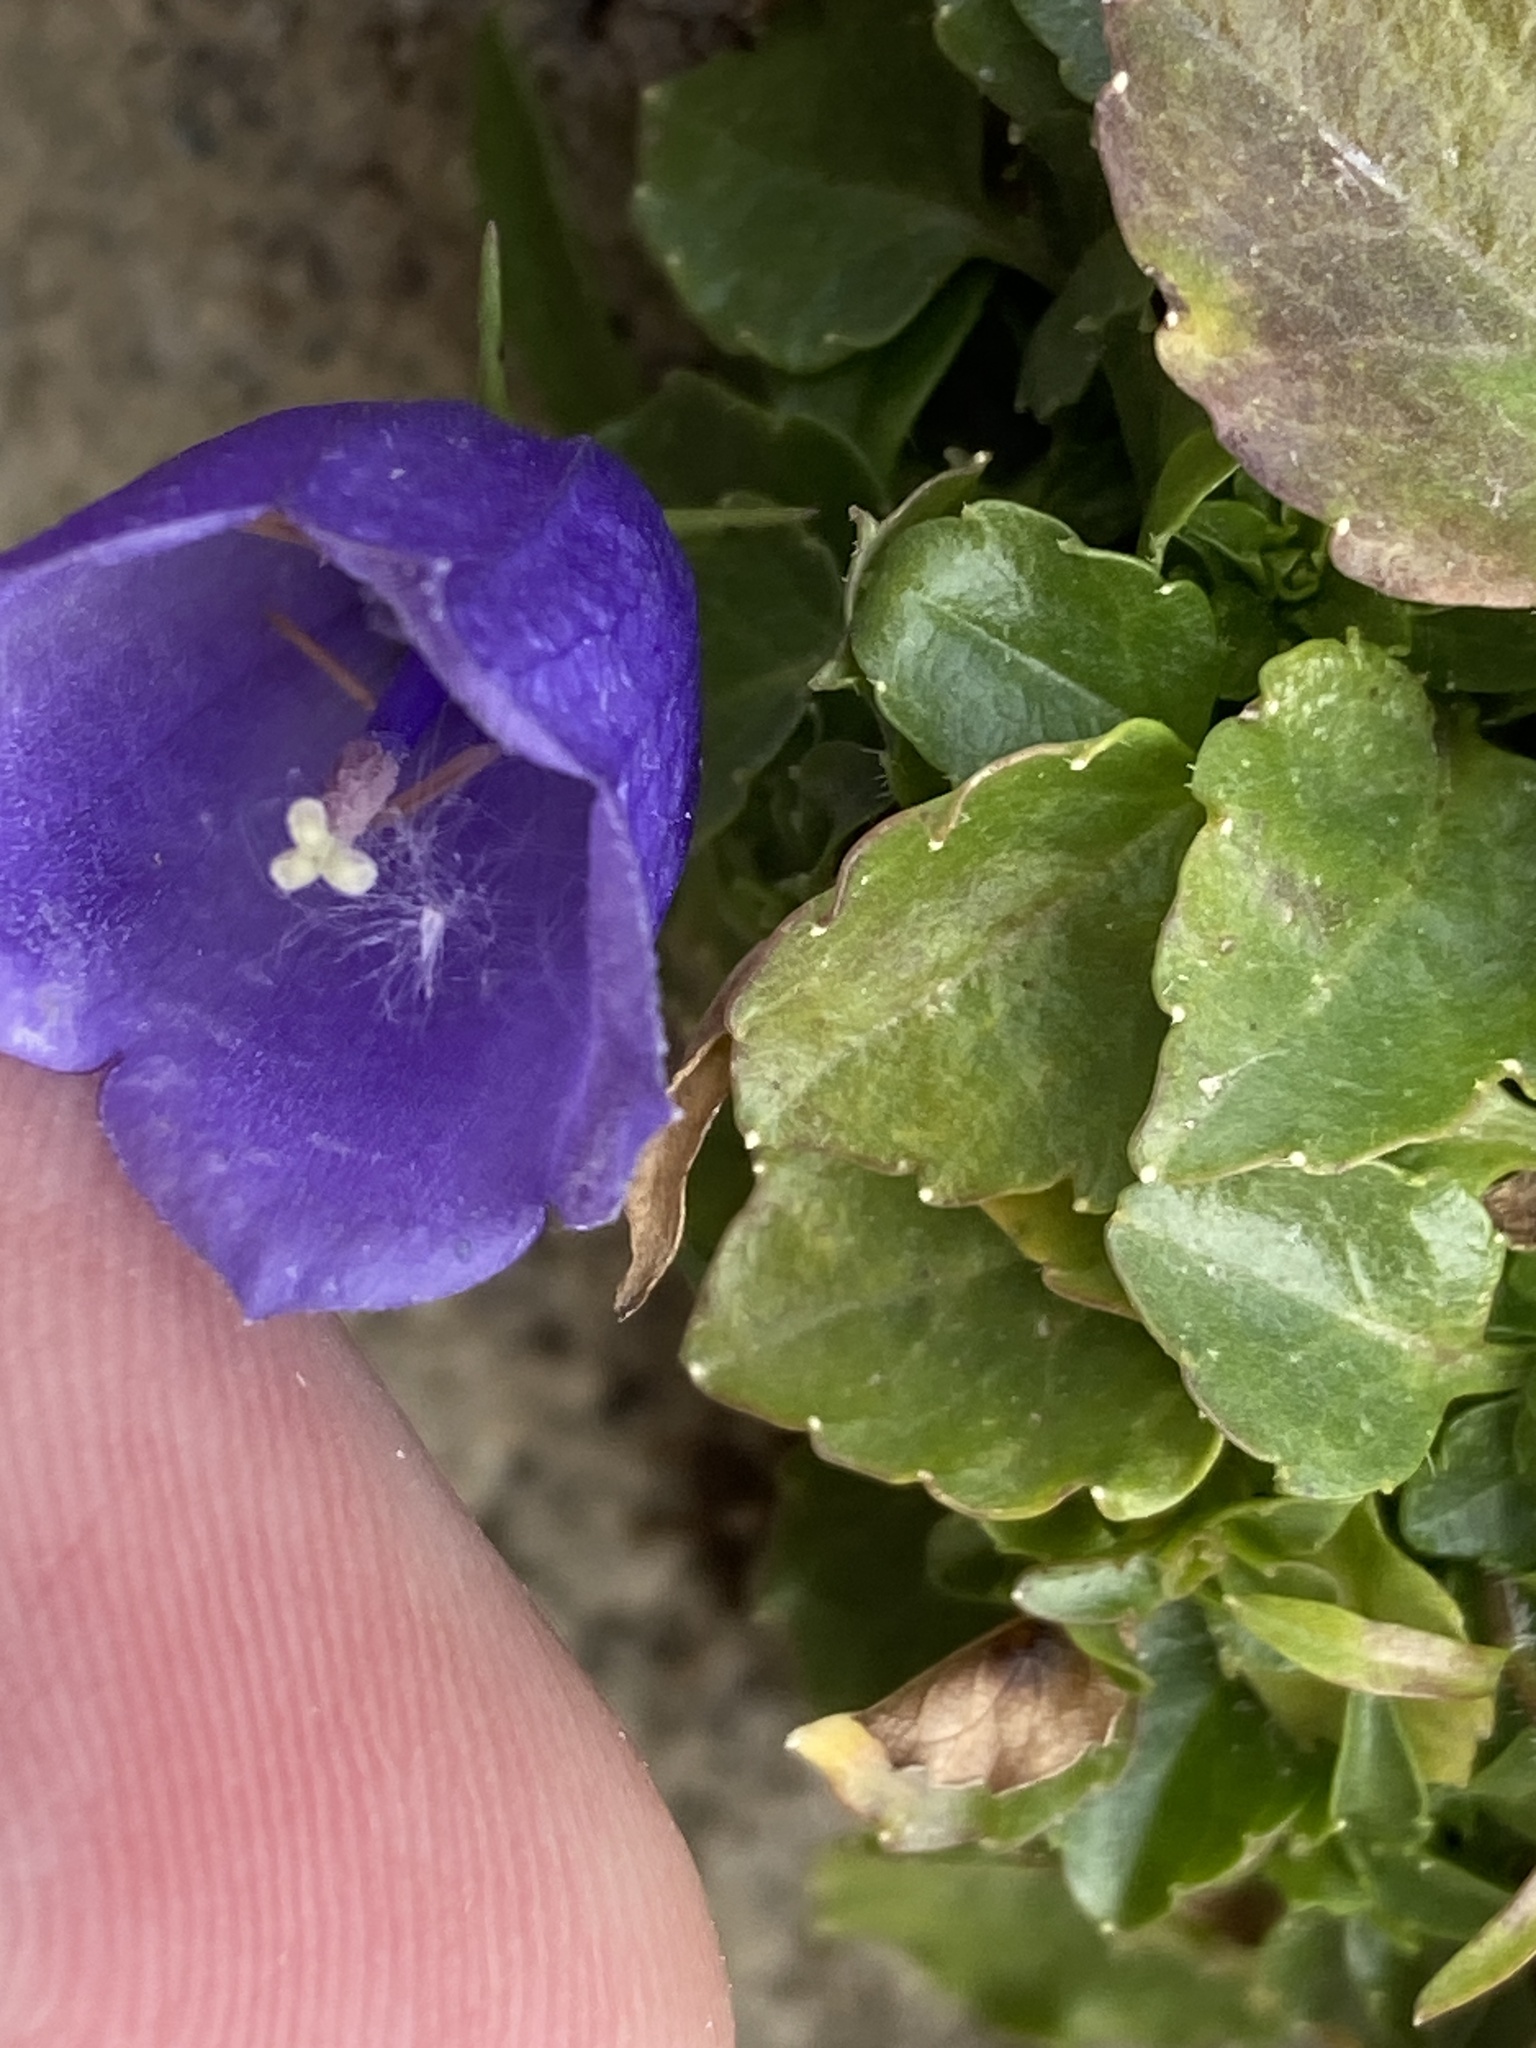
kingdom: Plantae
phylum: Tracheophyta
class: Magnoliopsida
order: Asterales
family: Campanulaceae
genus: Campanula
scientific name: Campanula cochleariifolia
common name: Fairies'-thimbles
